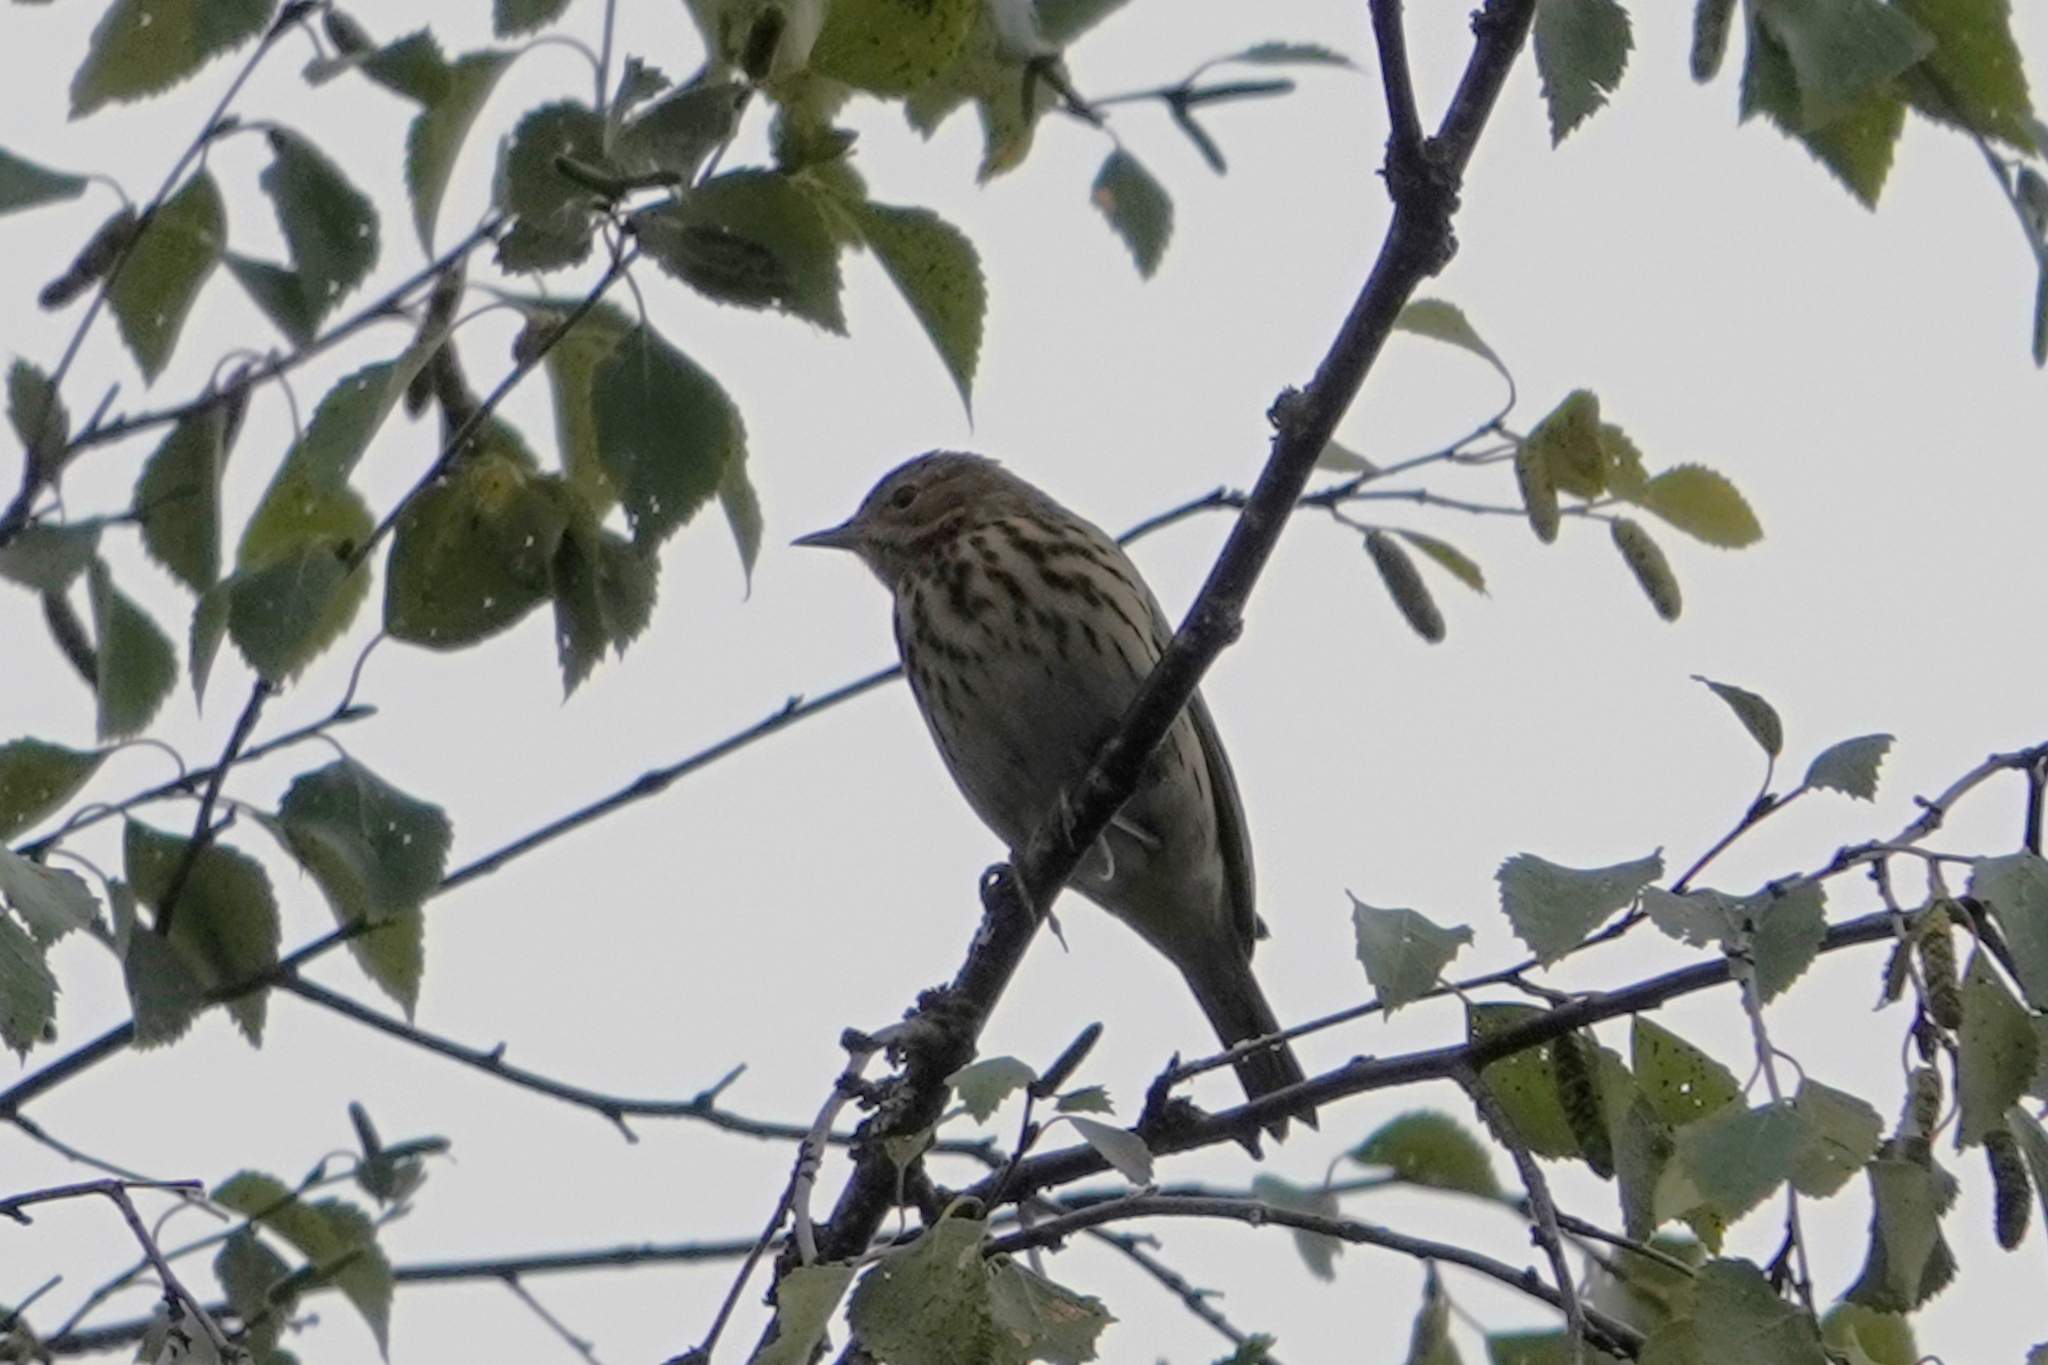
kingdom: Animalia
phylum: Chordata
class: Aves
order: Passeriformes
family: Motacillidae
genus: Anthus
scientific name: Anthus trivialis
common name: Tree pipit
